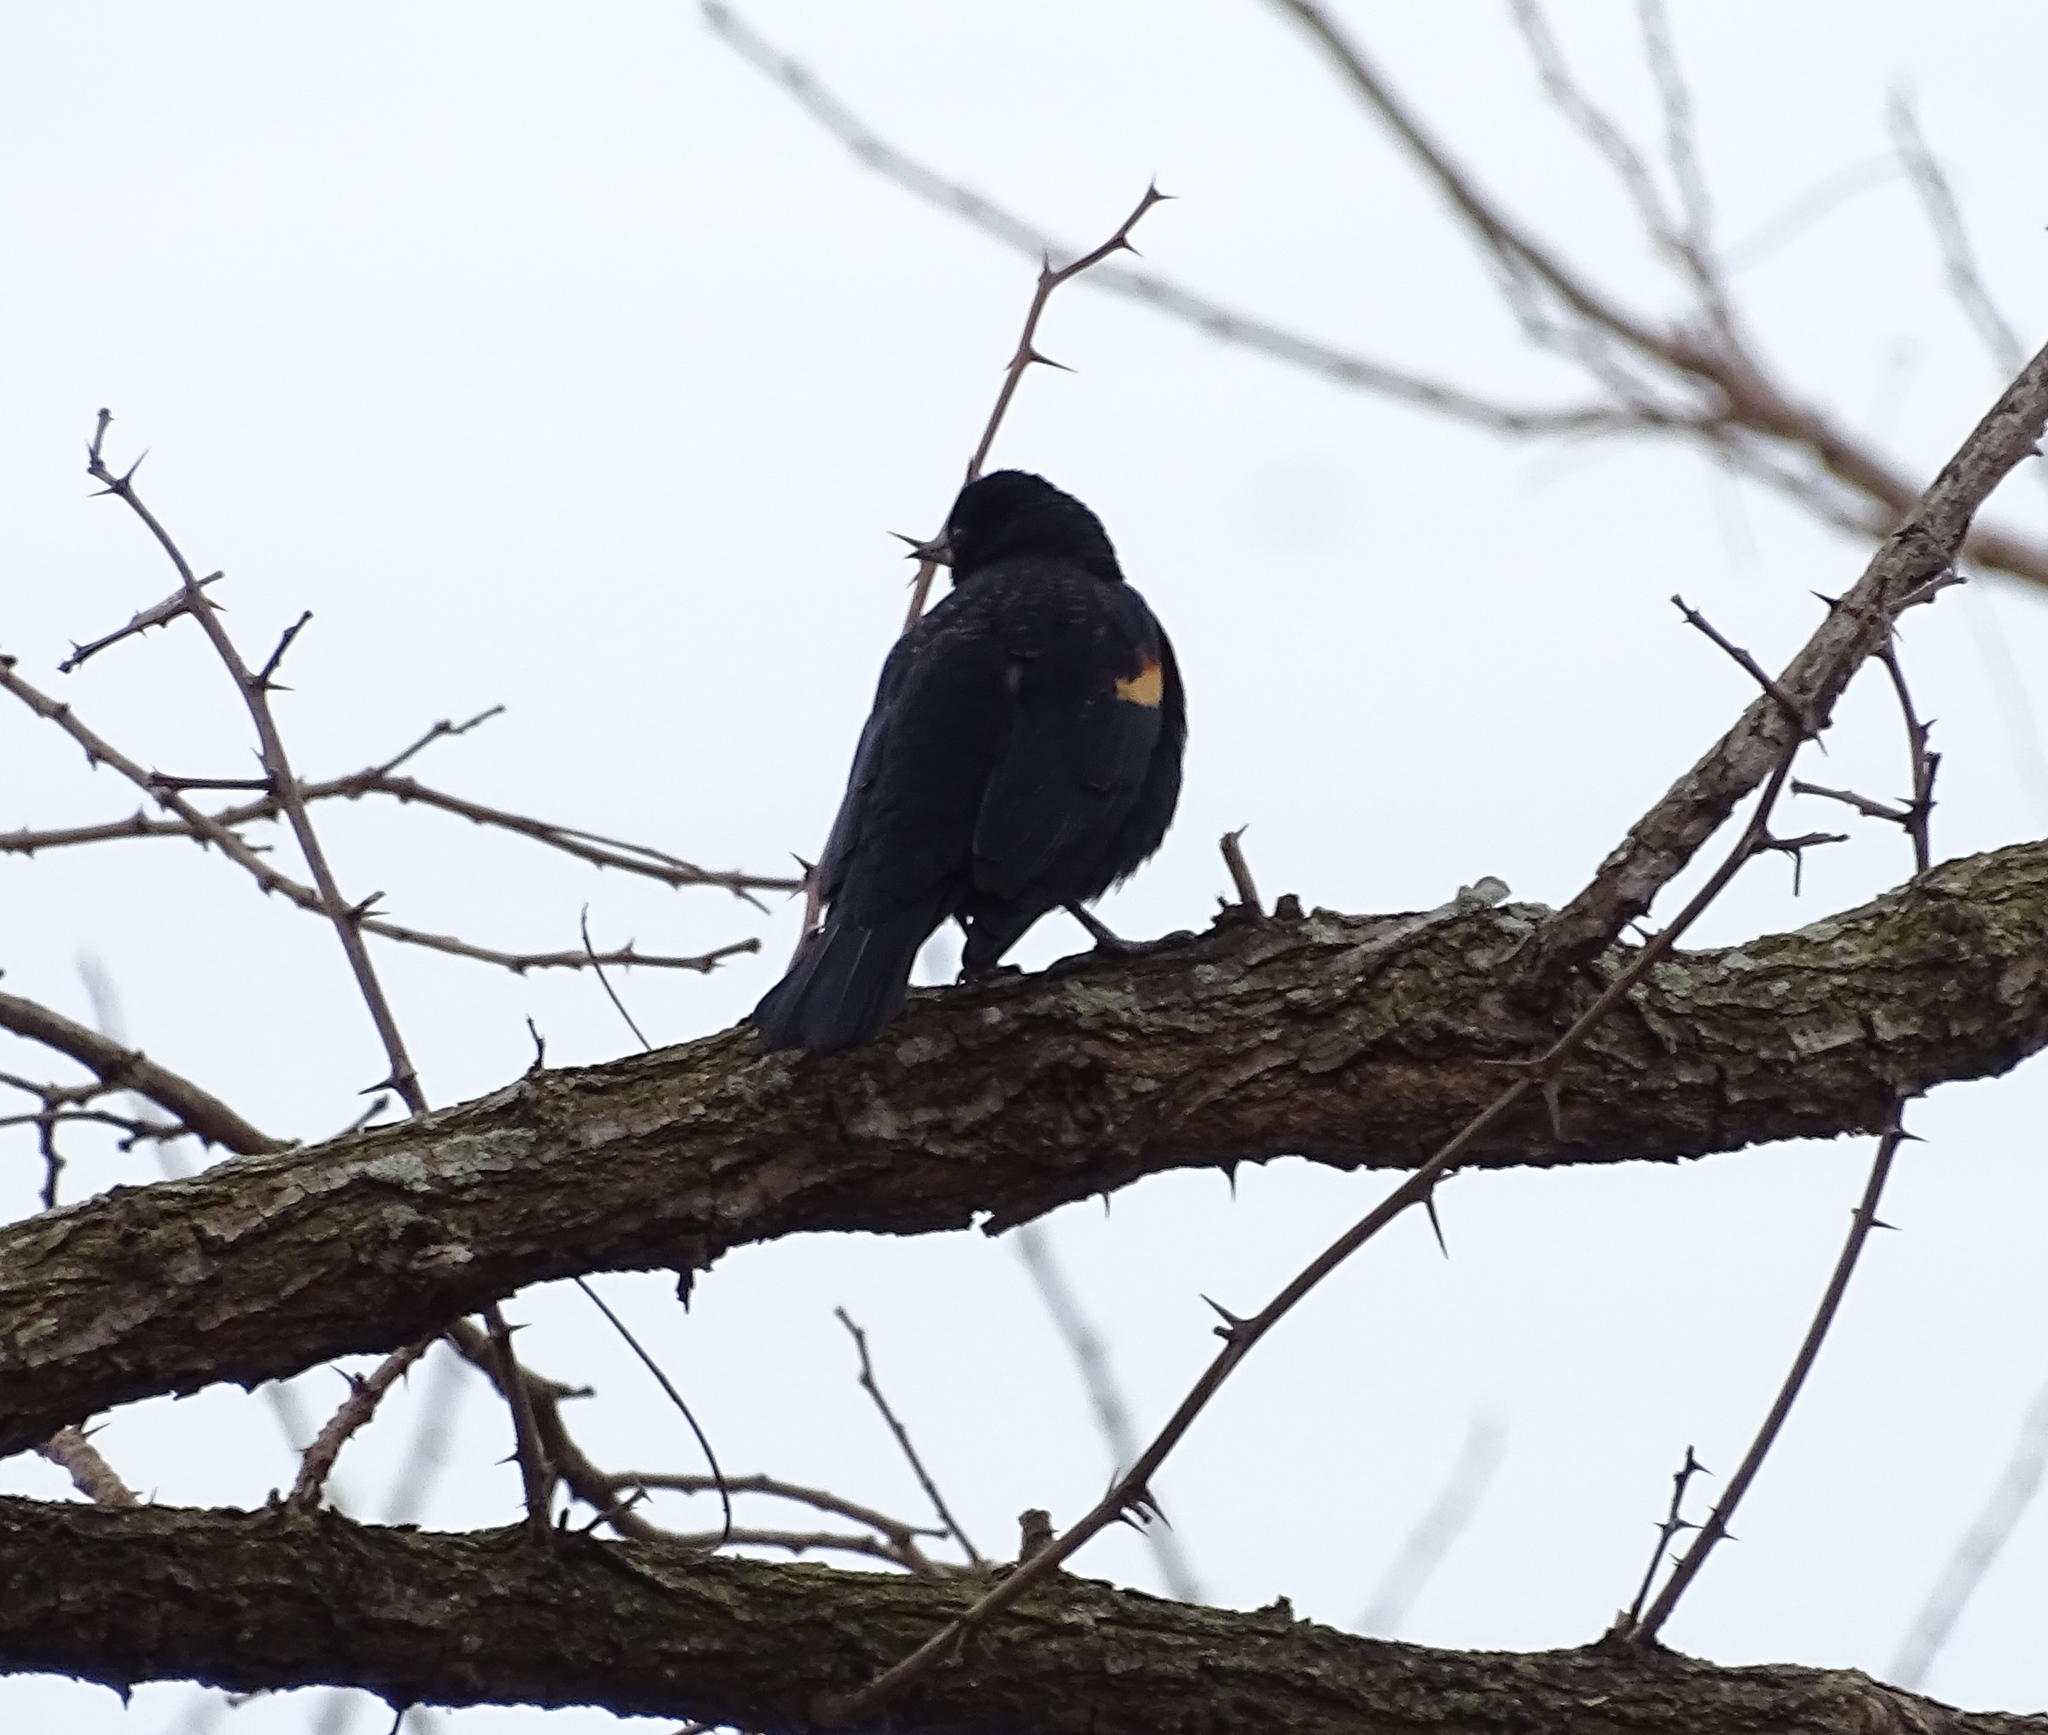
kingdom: Animalia
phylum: Chordata
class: Aves
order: Passeriformes
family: Icteridae
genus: Agelaius
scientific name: Agelaius phoeniceus
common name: Red-winged blackbird
